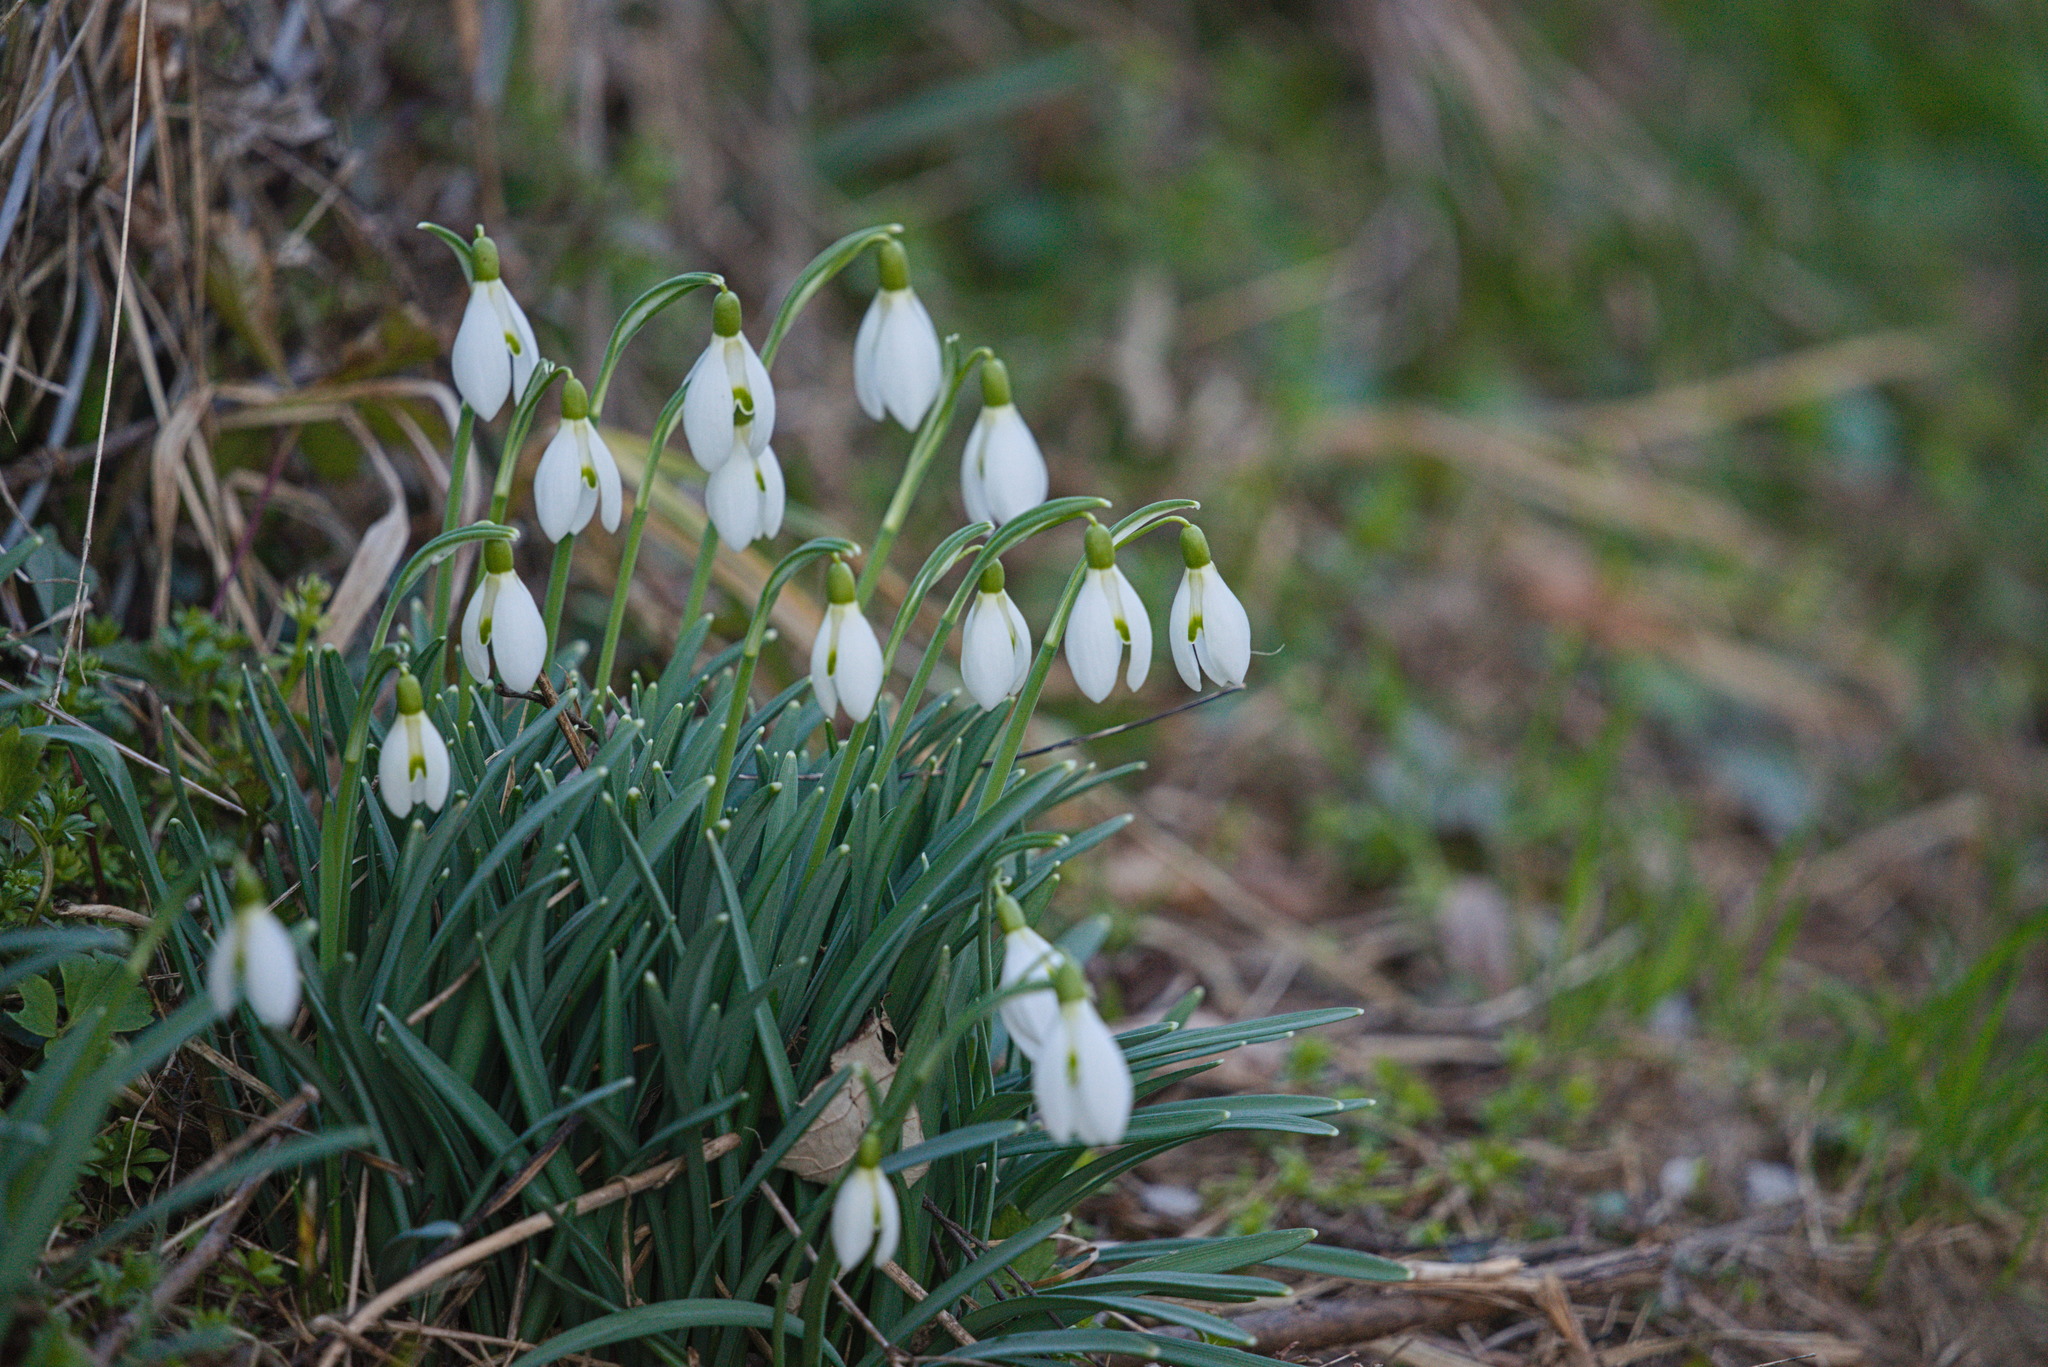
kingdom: Plantae
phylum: Tracheophyta
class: Liliopsida
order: Asparagales
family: Amaryllidaceae
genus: Galanthus
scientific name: Galanthus nivalis
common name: Snowdrop
